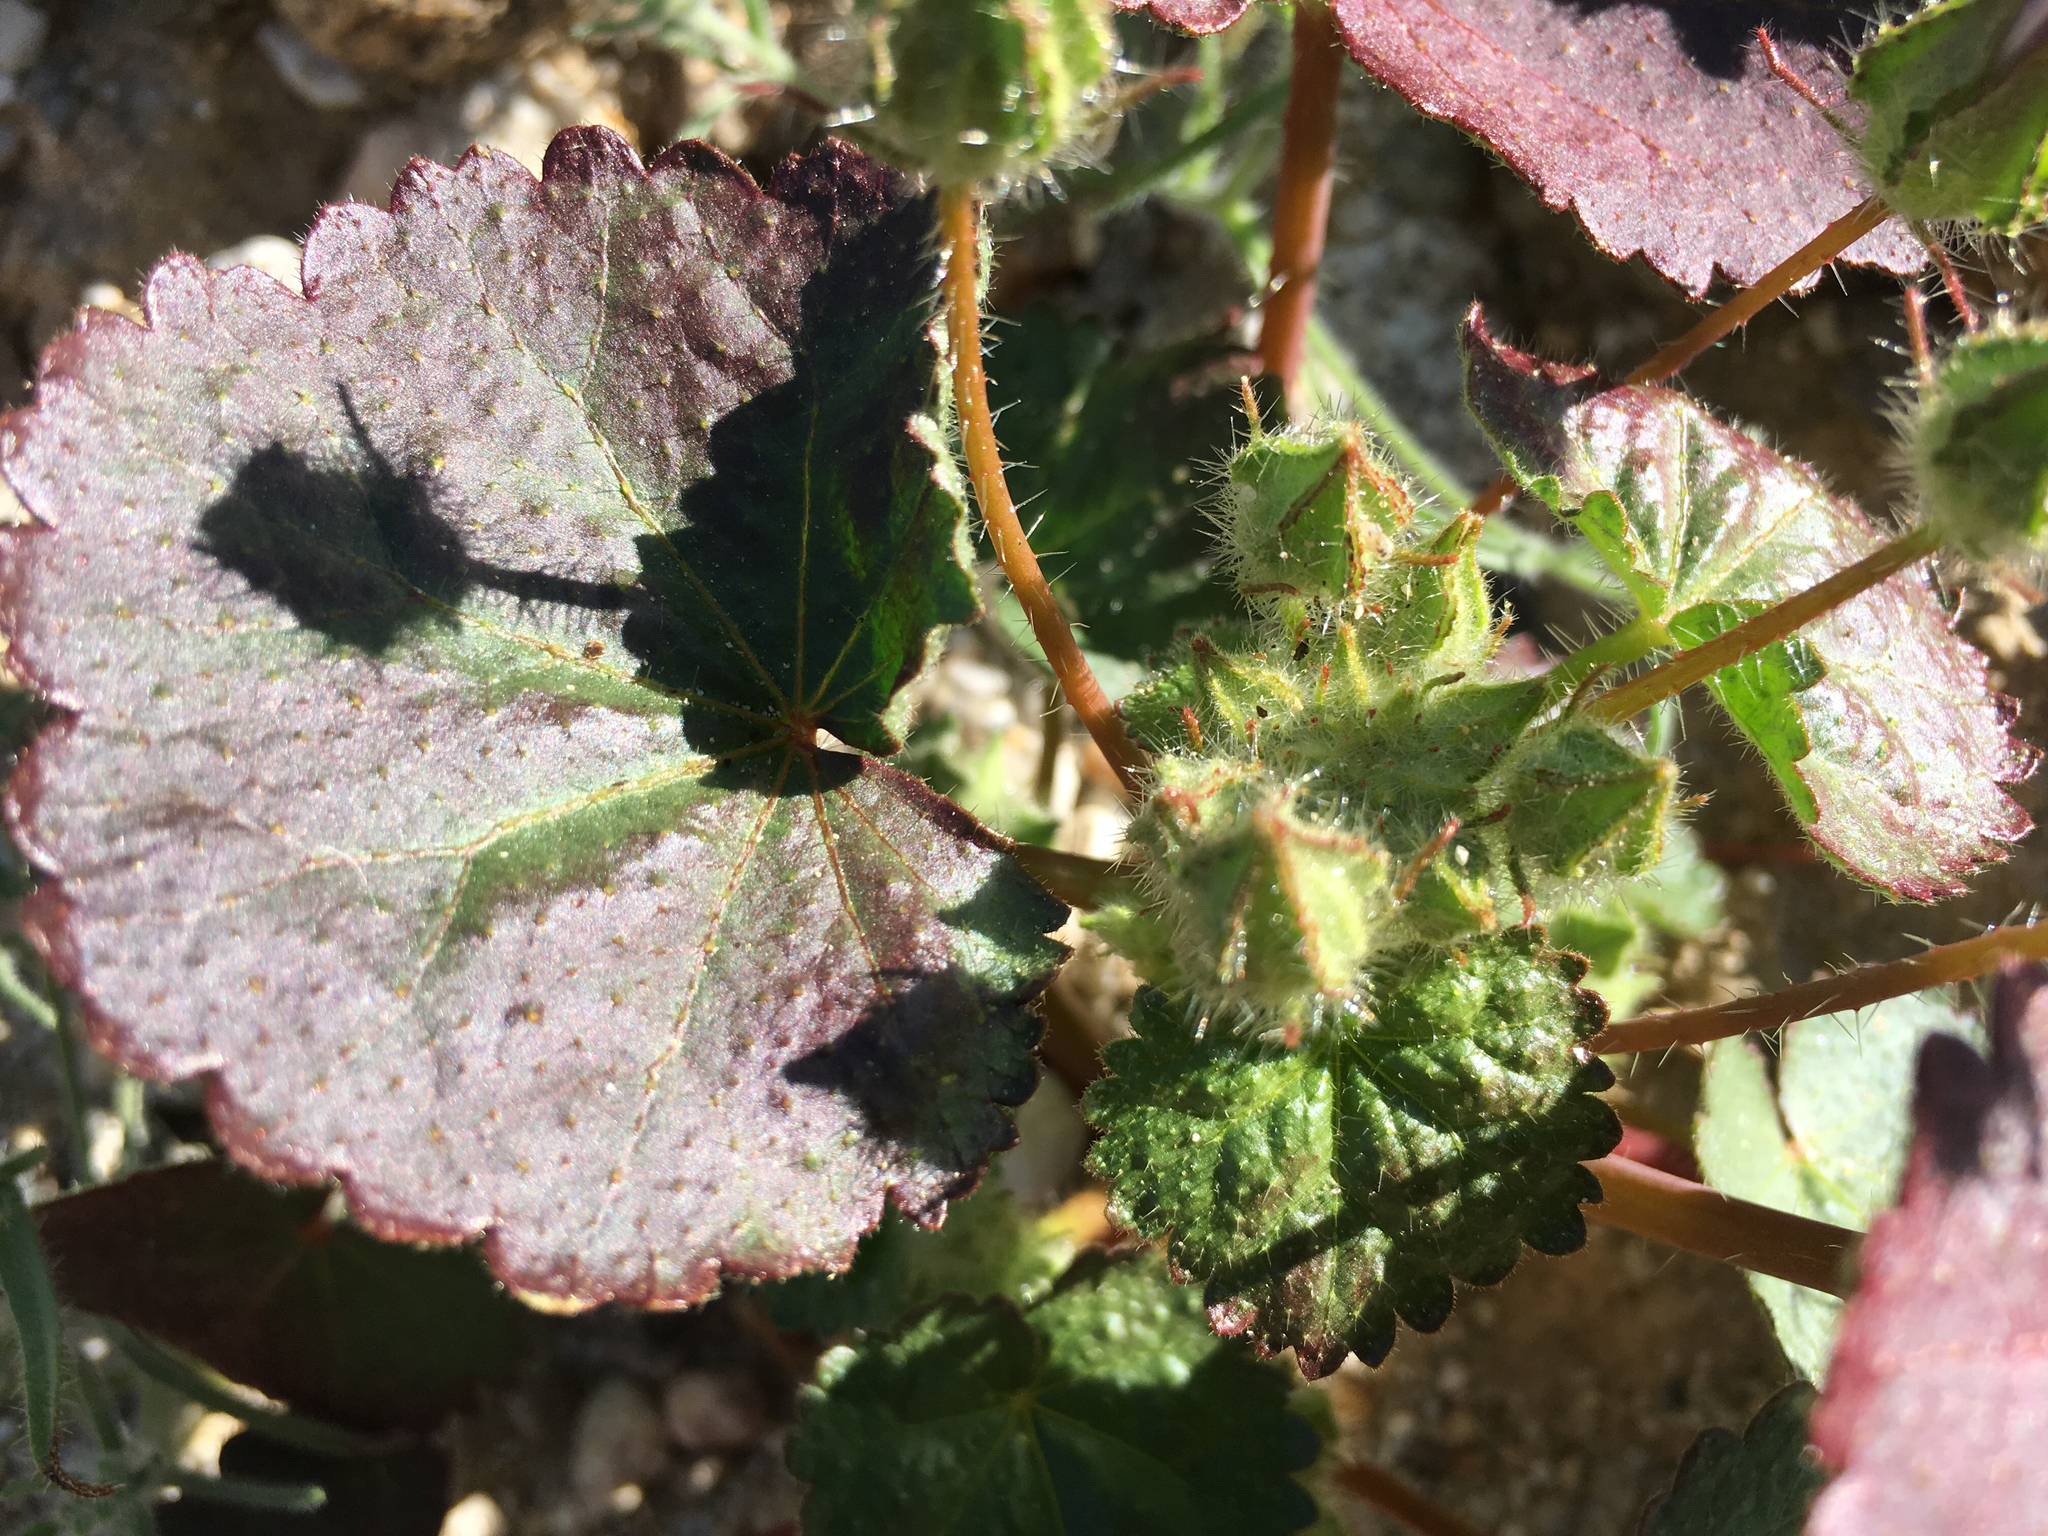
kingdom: Plantae
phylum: Tracheophyta
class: Magnoliopsida
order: Malvales
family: Malvaceae
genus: Eremalche
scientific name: Eremalche rotundifolia
